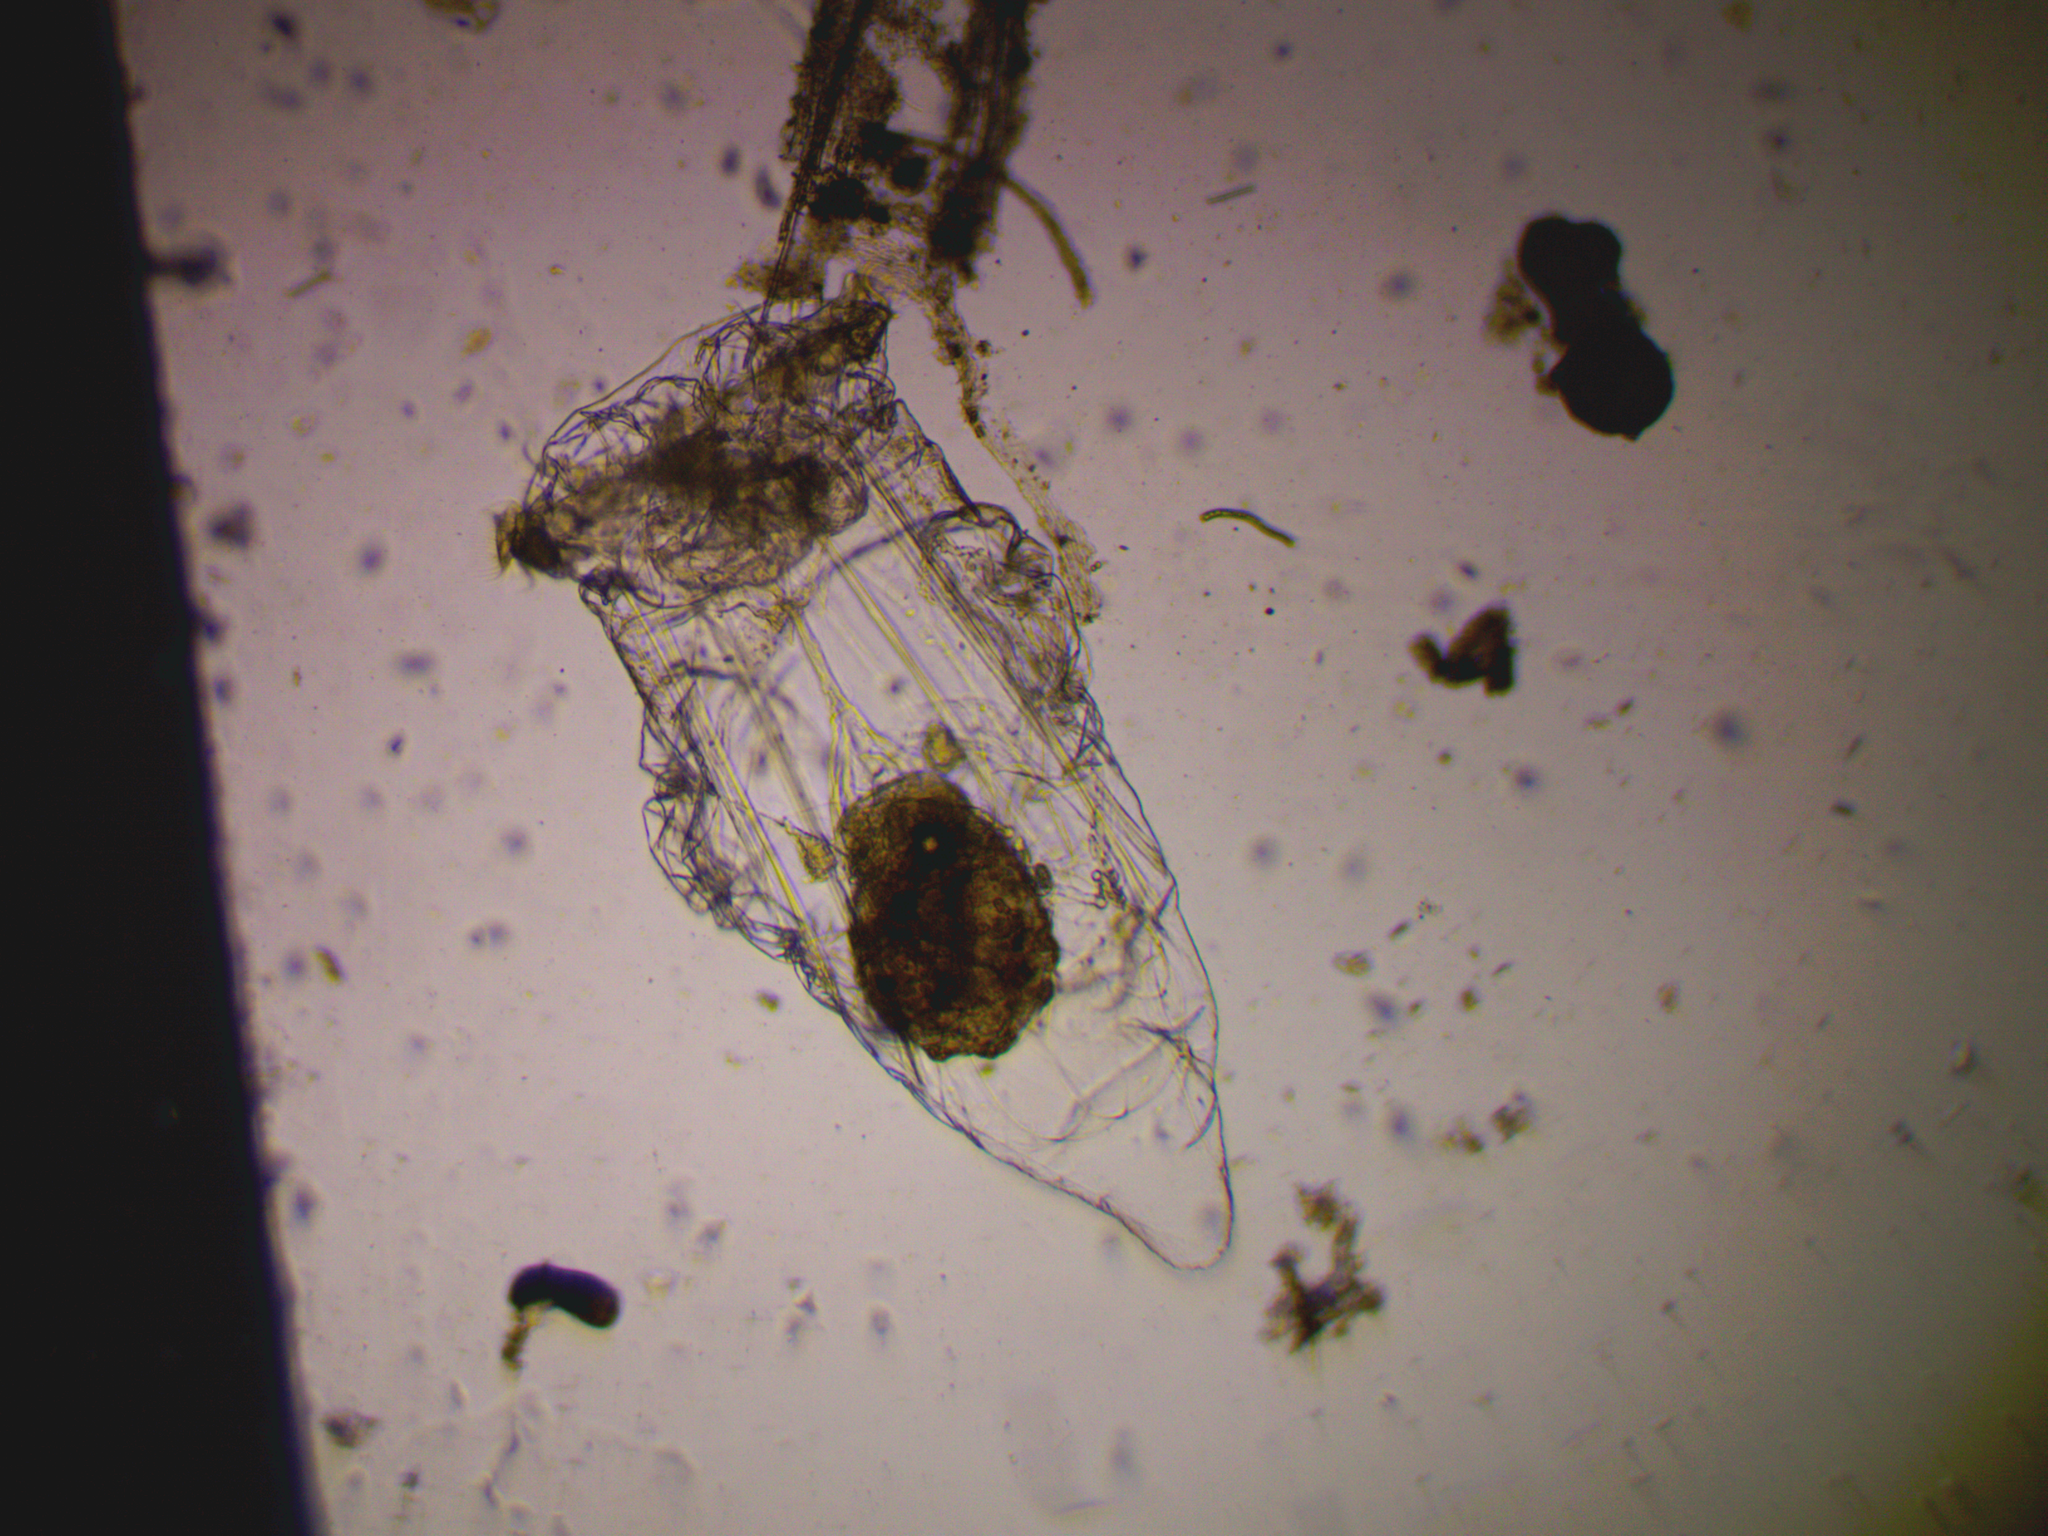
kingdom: Animalia
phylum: Rotifera
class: Eurotatoria
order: Ploima
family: Asplanchnidae
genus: Asplanchna
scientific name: Asplanchna sieboldii
